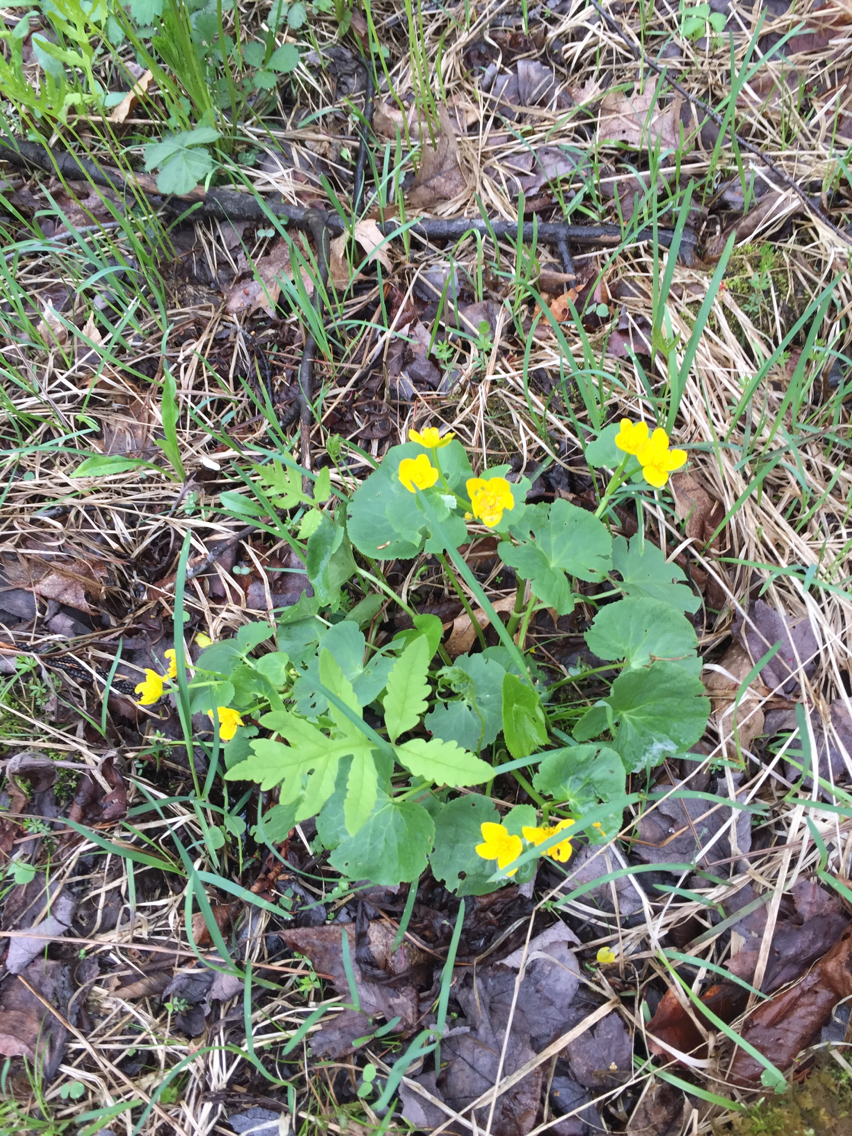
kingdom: Plantae
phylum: Tracheophyta
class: Magnoliopsida
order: Ranunculales
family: Ranunculaceae
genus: Caltha
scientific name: Caltha palustris
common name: Marsh marigold
